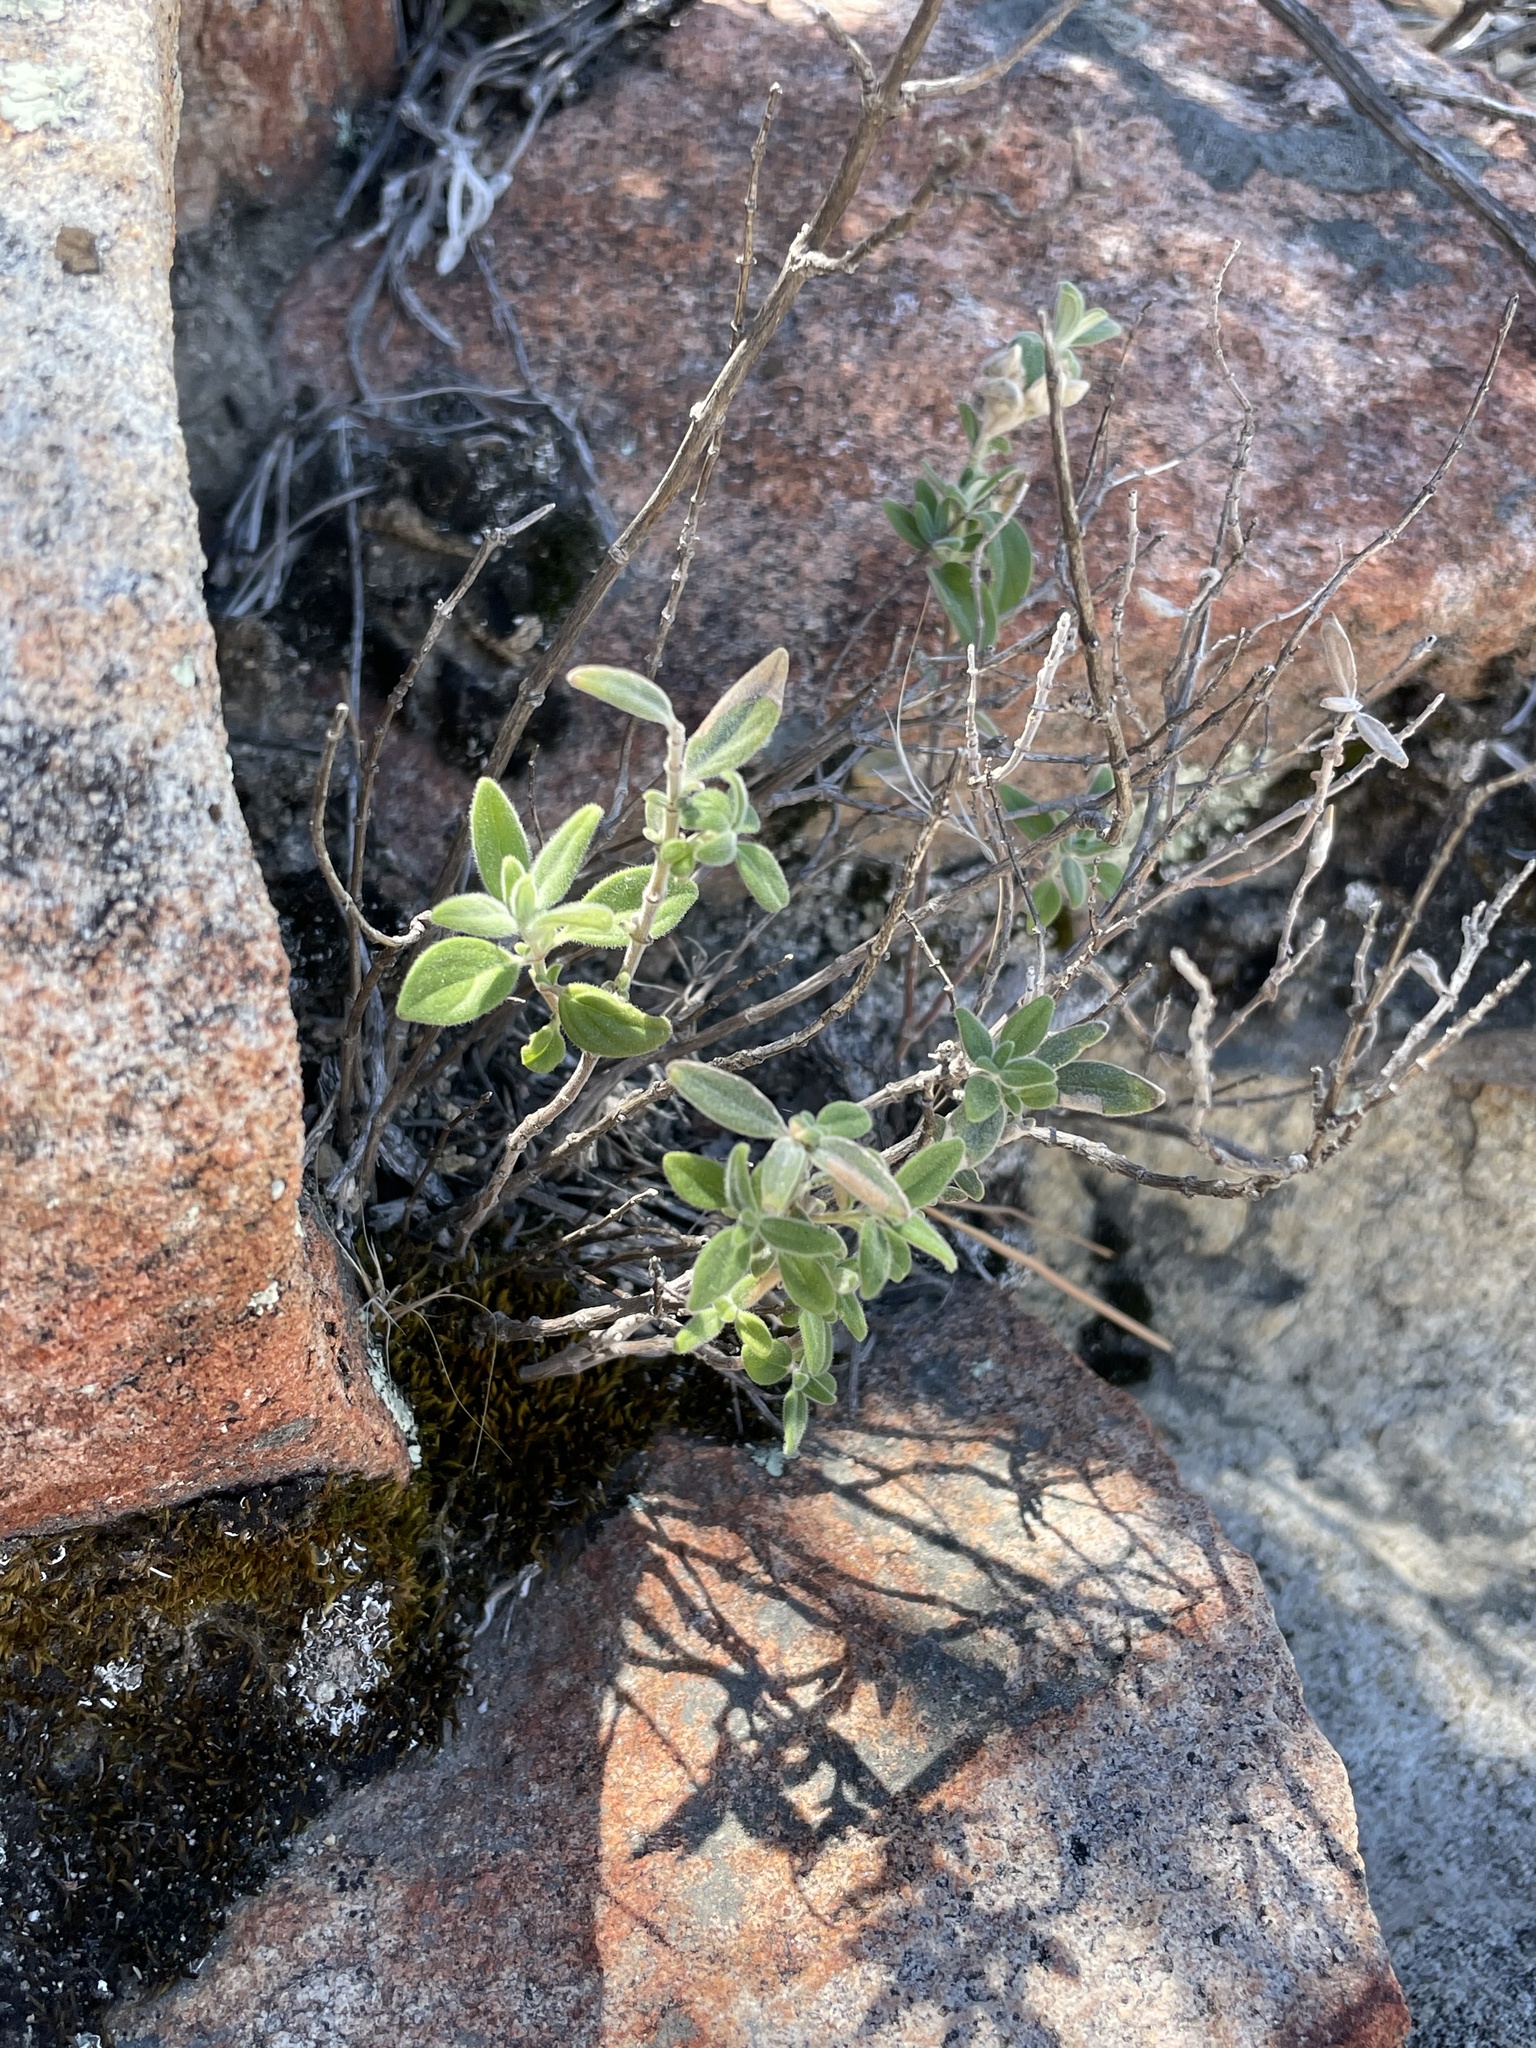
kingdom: Plantae
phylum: Tracheophyta
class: Magnoliopsida
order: Lamiales
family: Lamiaceae
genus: Monardella
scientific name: Monardella hypoleuca
